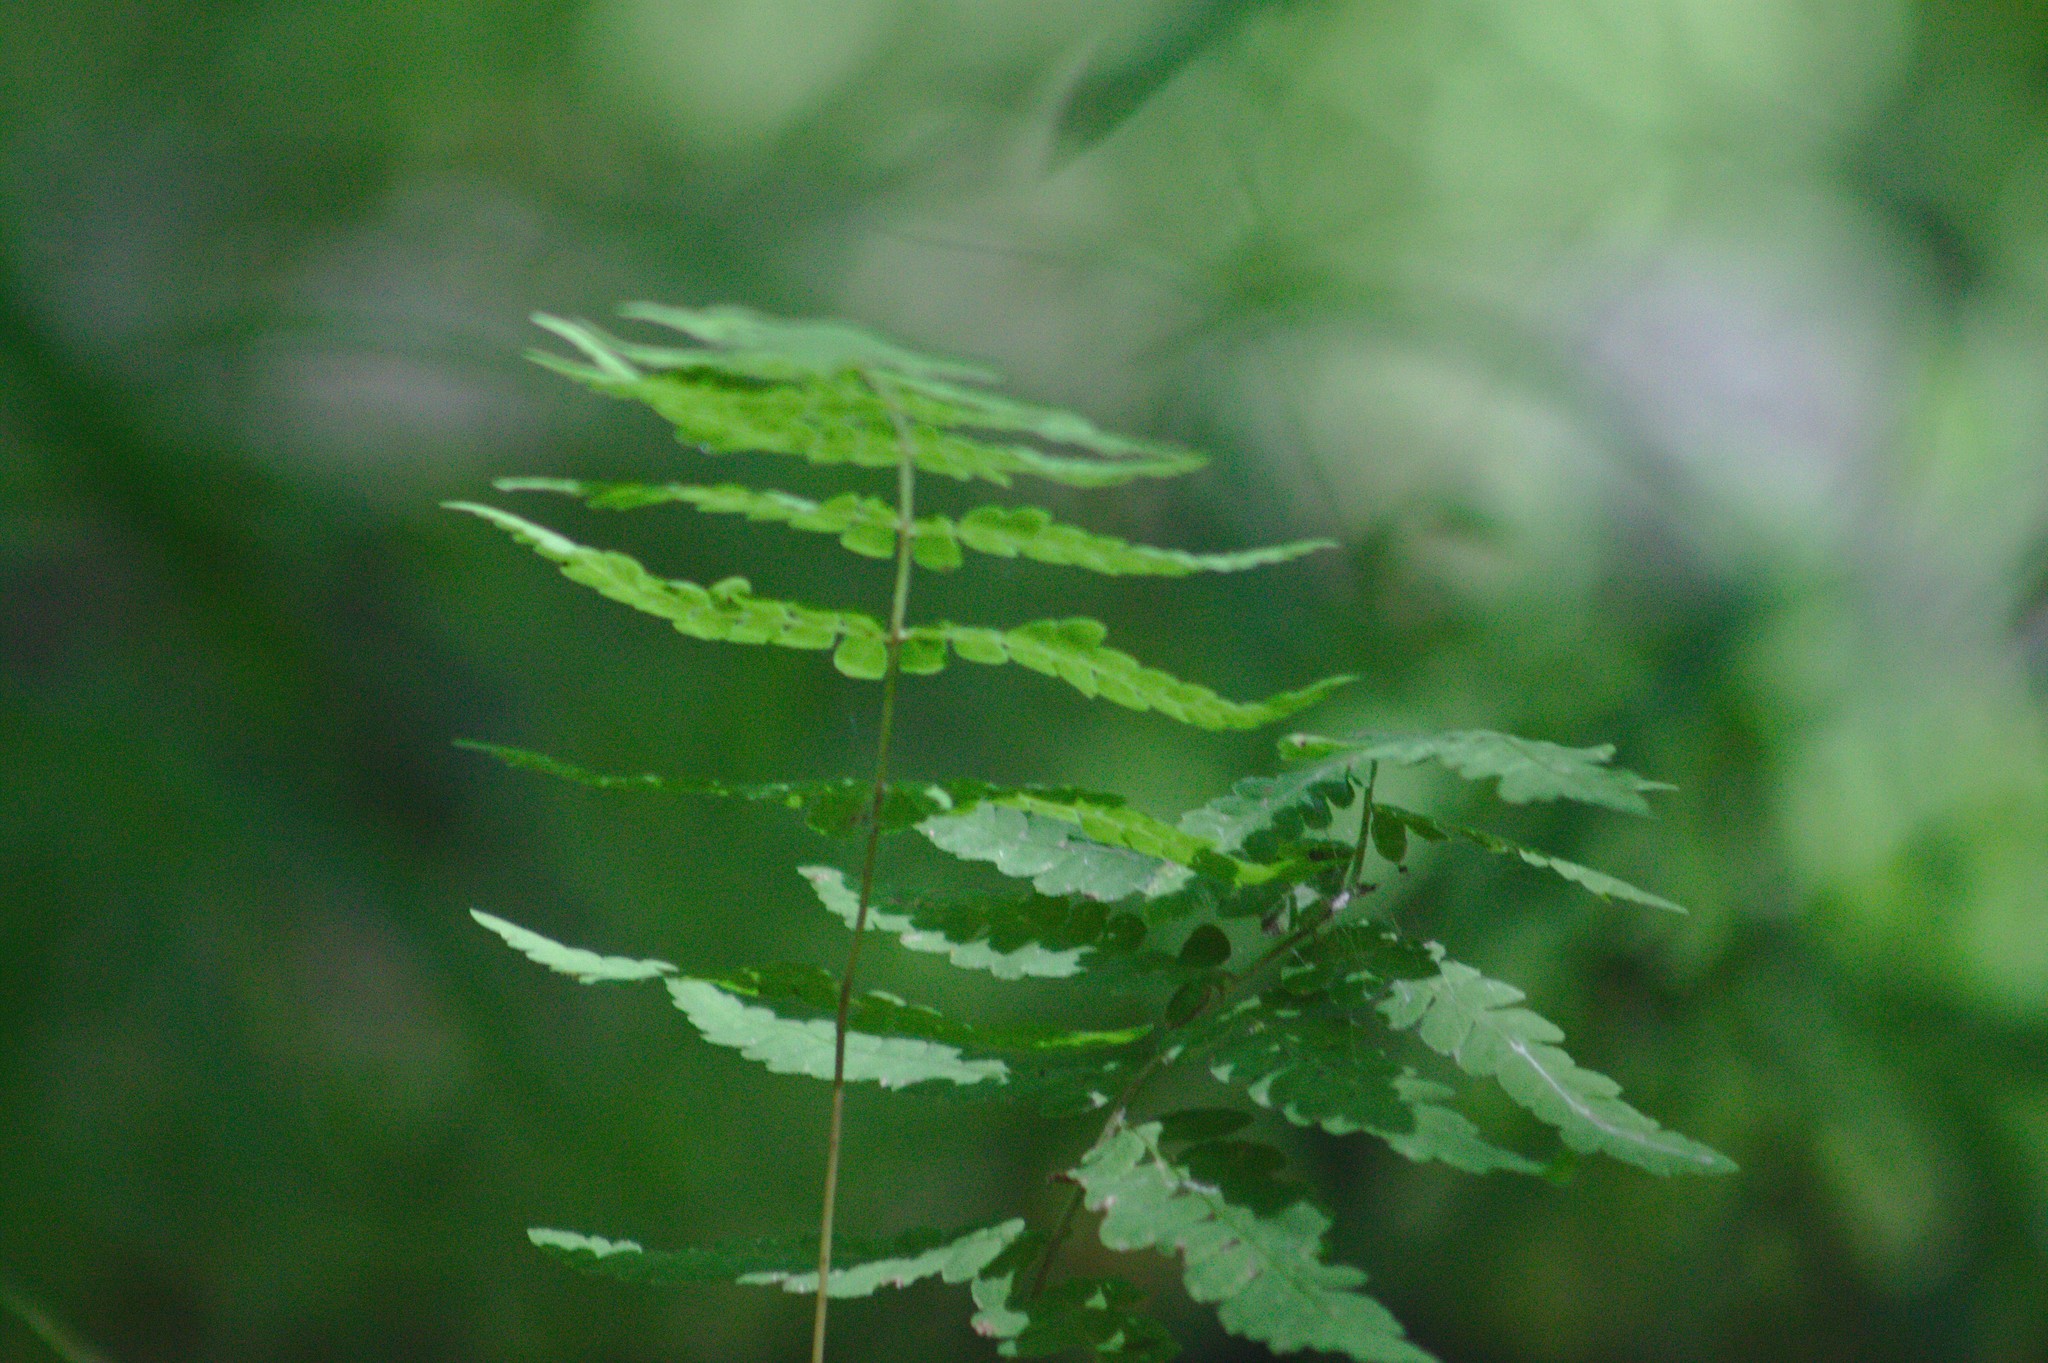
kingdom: Plantae
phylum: Tracheophyta
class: Polypodiopsida
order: Polypodiales
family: Thelypteridaceae
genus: Thelypteris
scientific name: Thelypteris palustris
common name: Marsh fern
